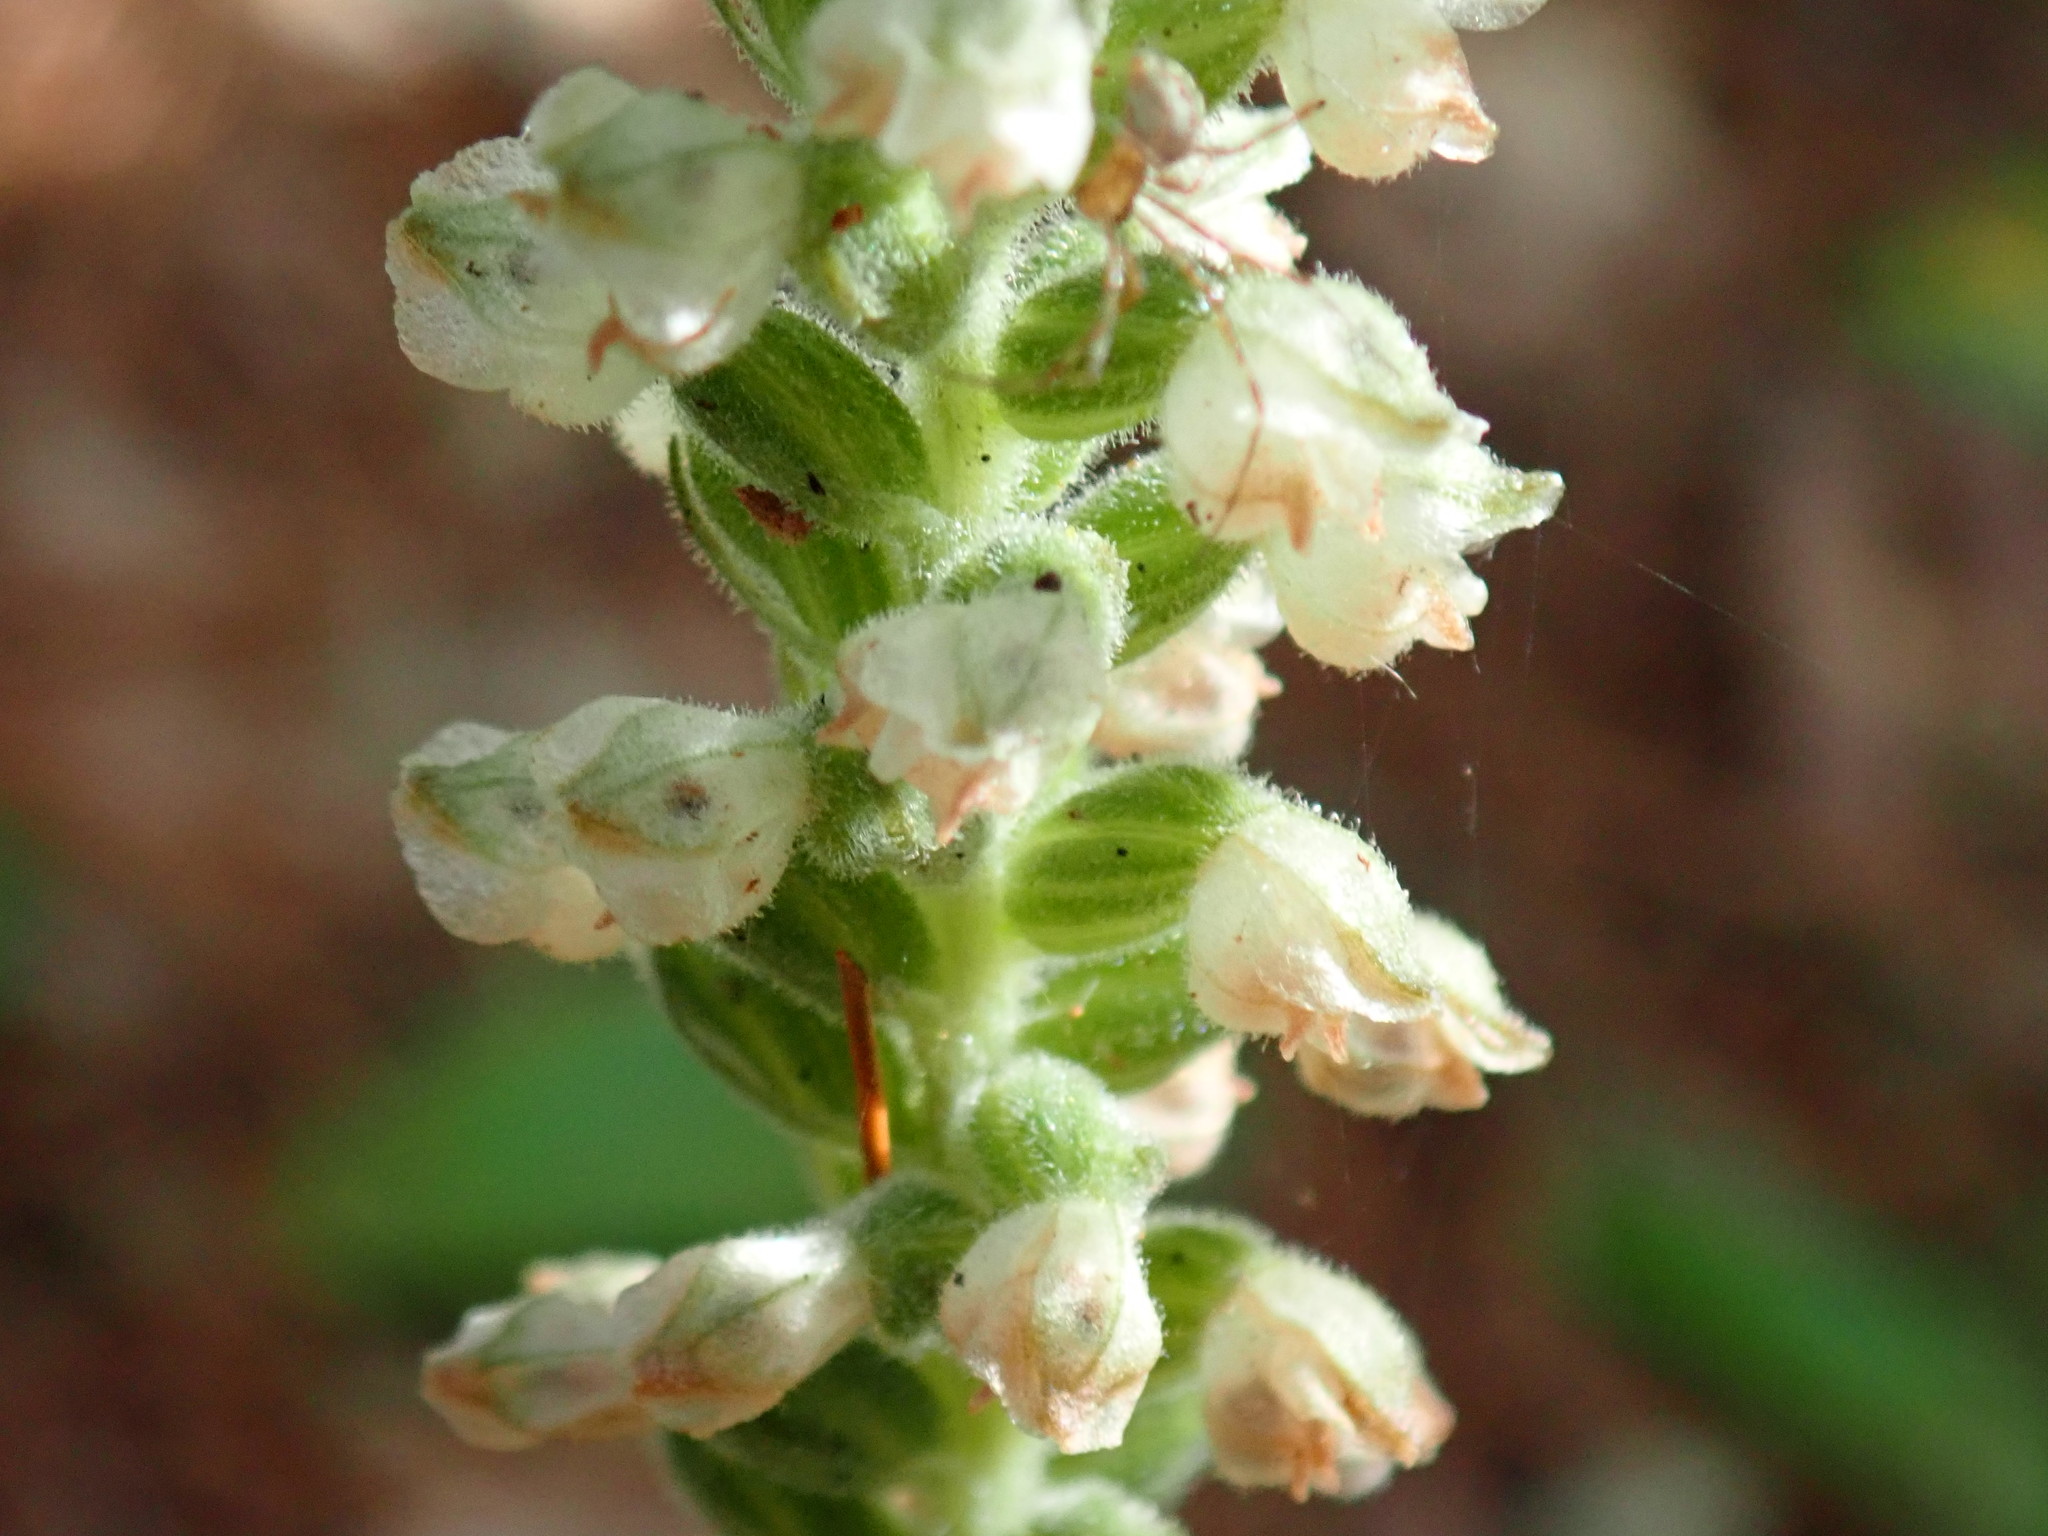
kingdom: Plantae
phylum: Tracheophyta
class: Liliopsida
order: Asparagales
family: Orchidaceae
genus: Goodyera
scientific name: Goodyera pubescens
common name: Downy rattlesnake-plantain
